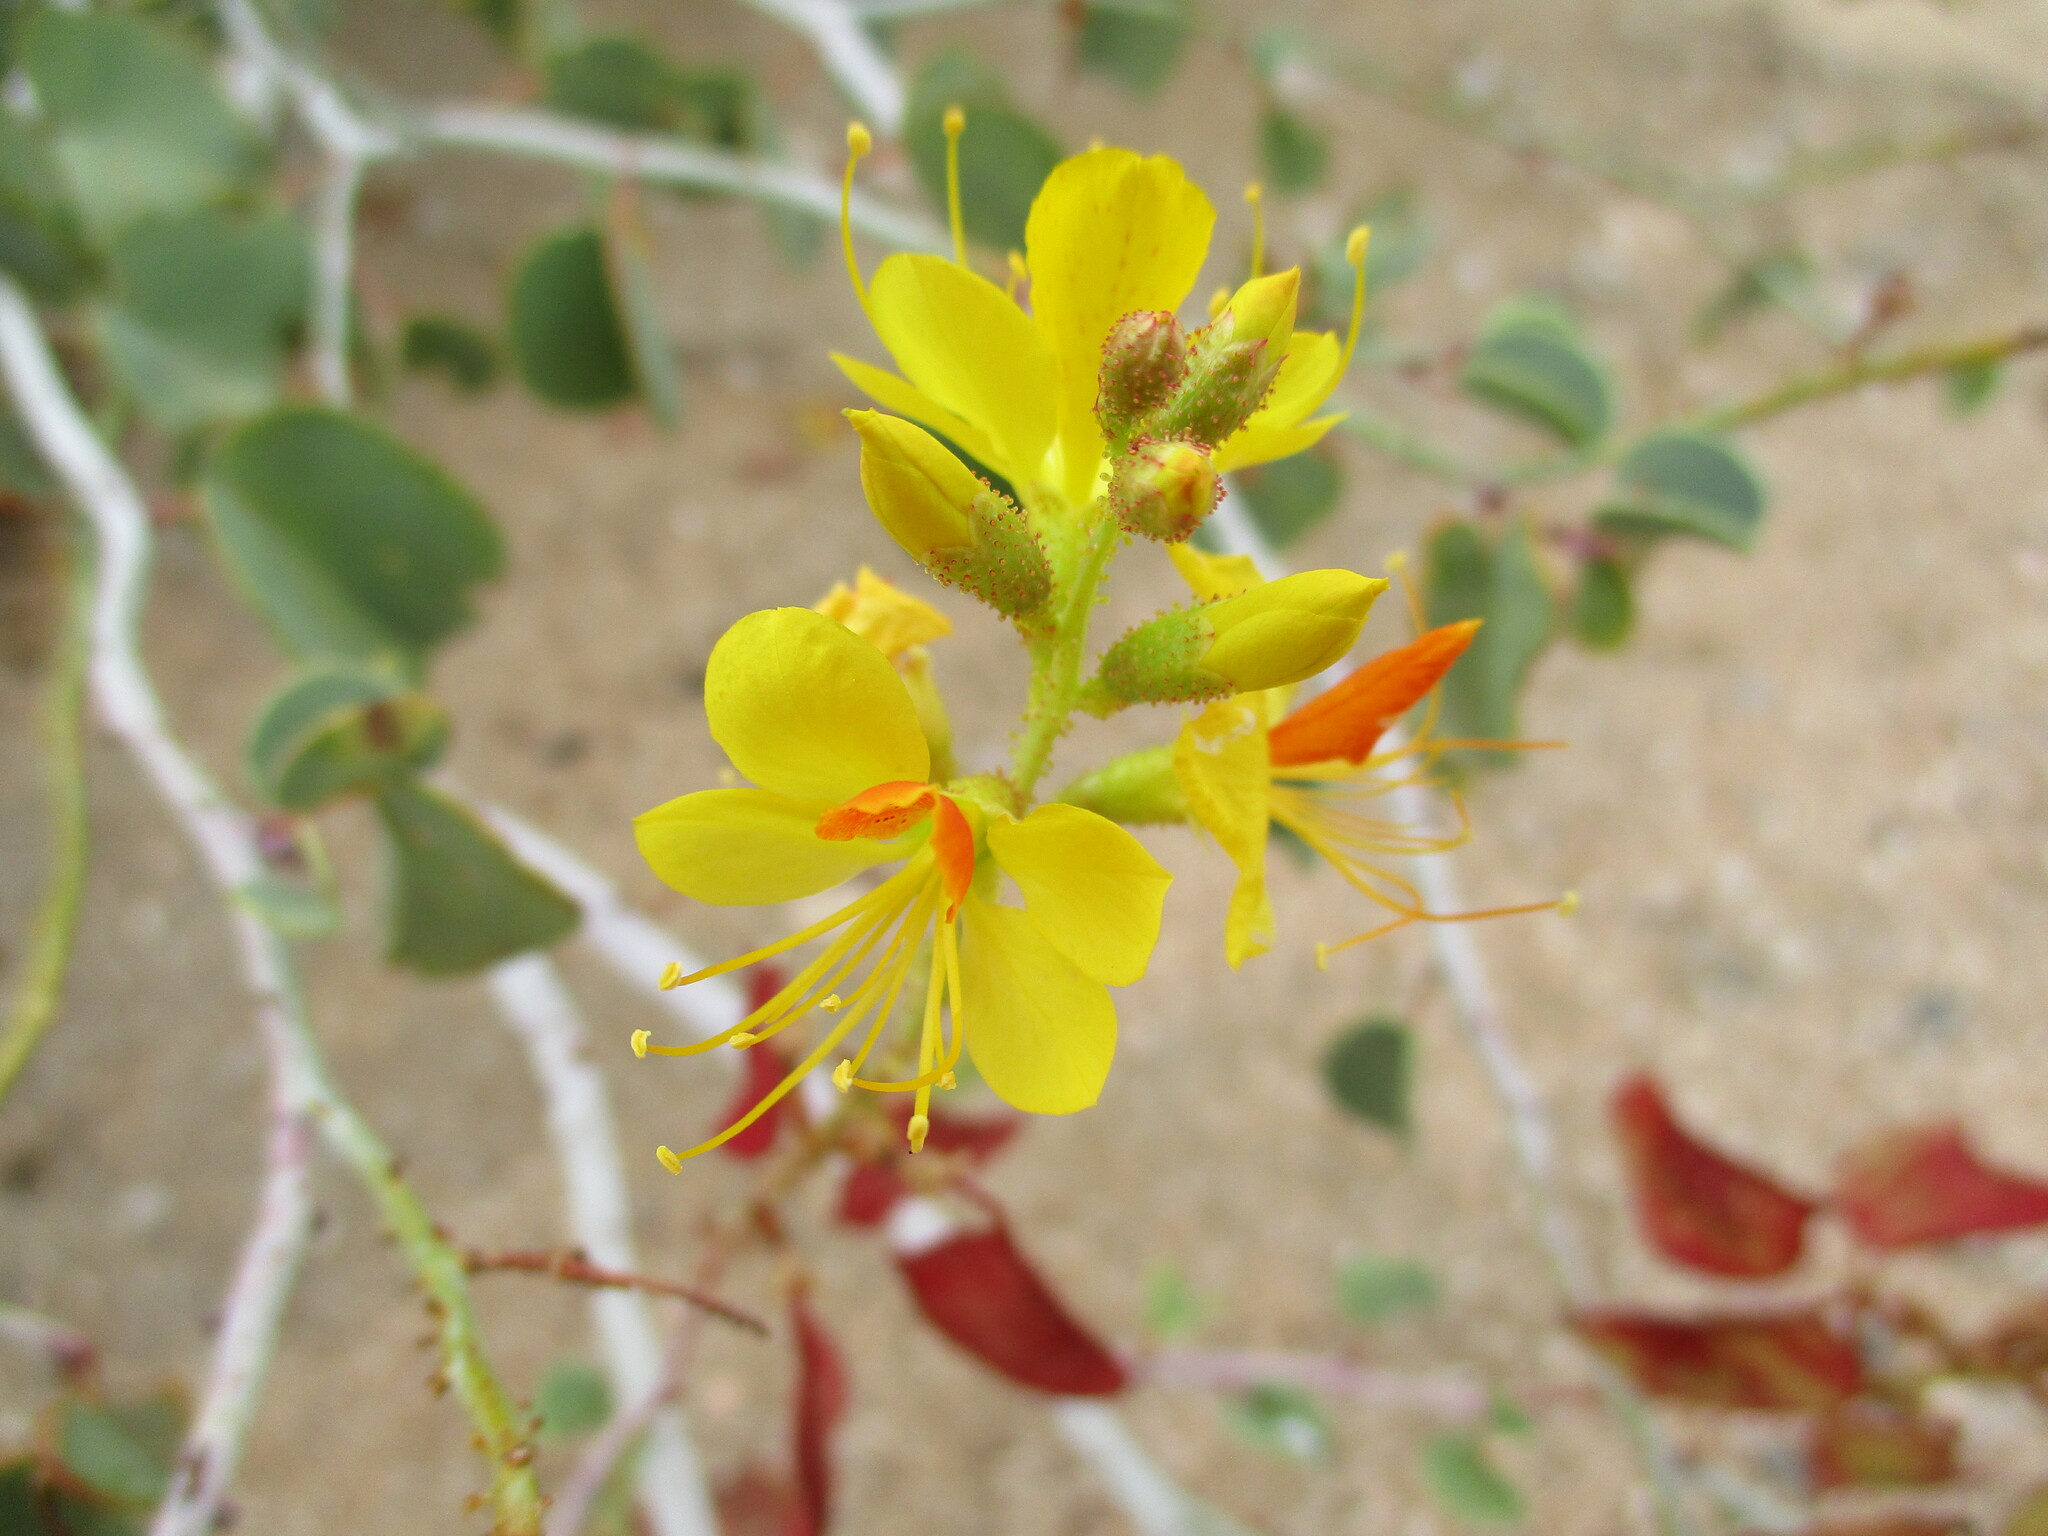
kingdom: Plantae
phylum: Tracheophyta
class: Magnoliopsida
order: Fabales
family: Fabaceae
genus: Adenolobus
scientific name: Adenolobus pechuelii
